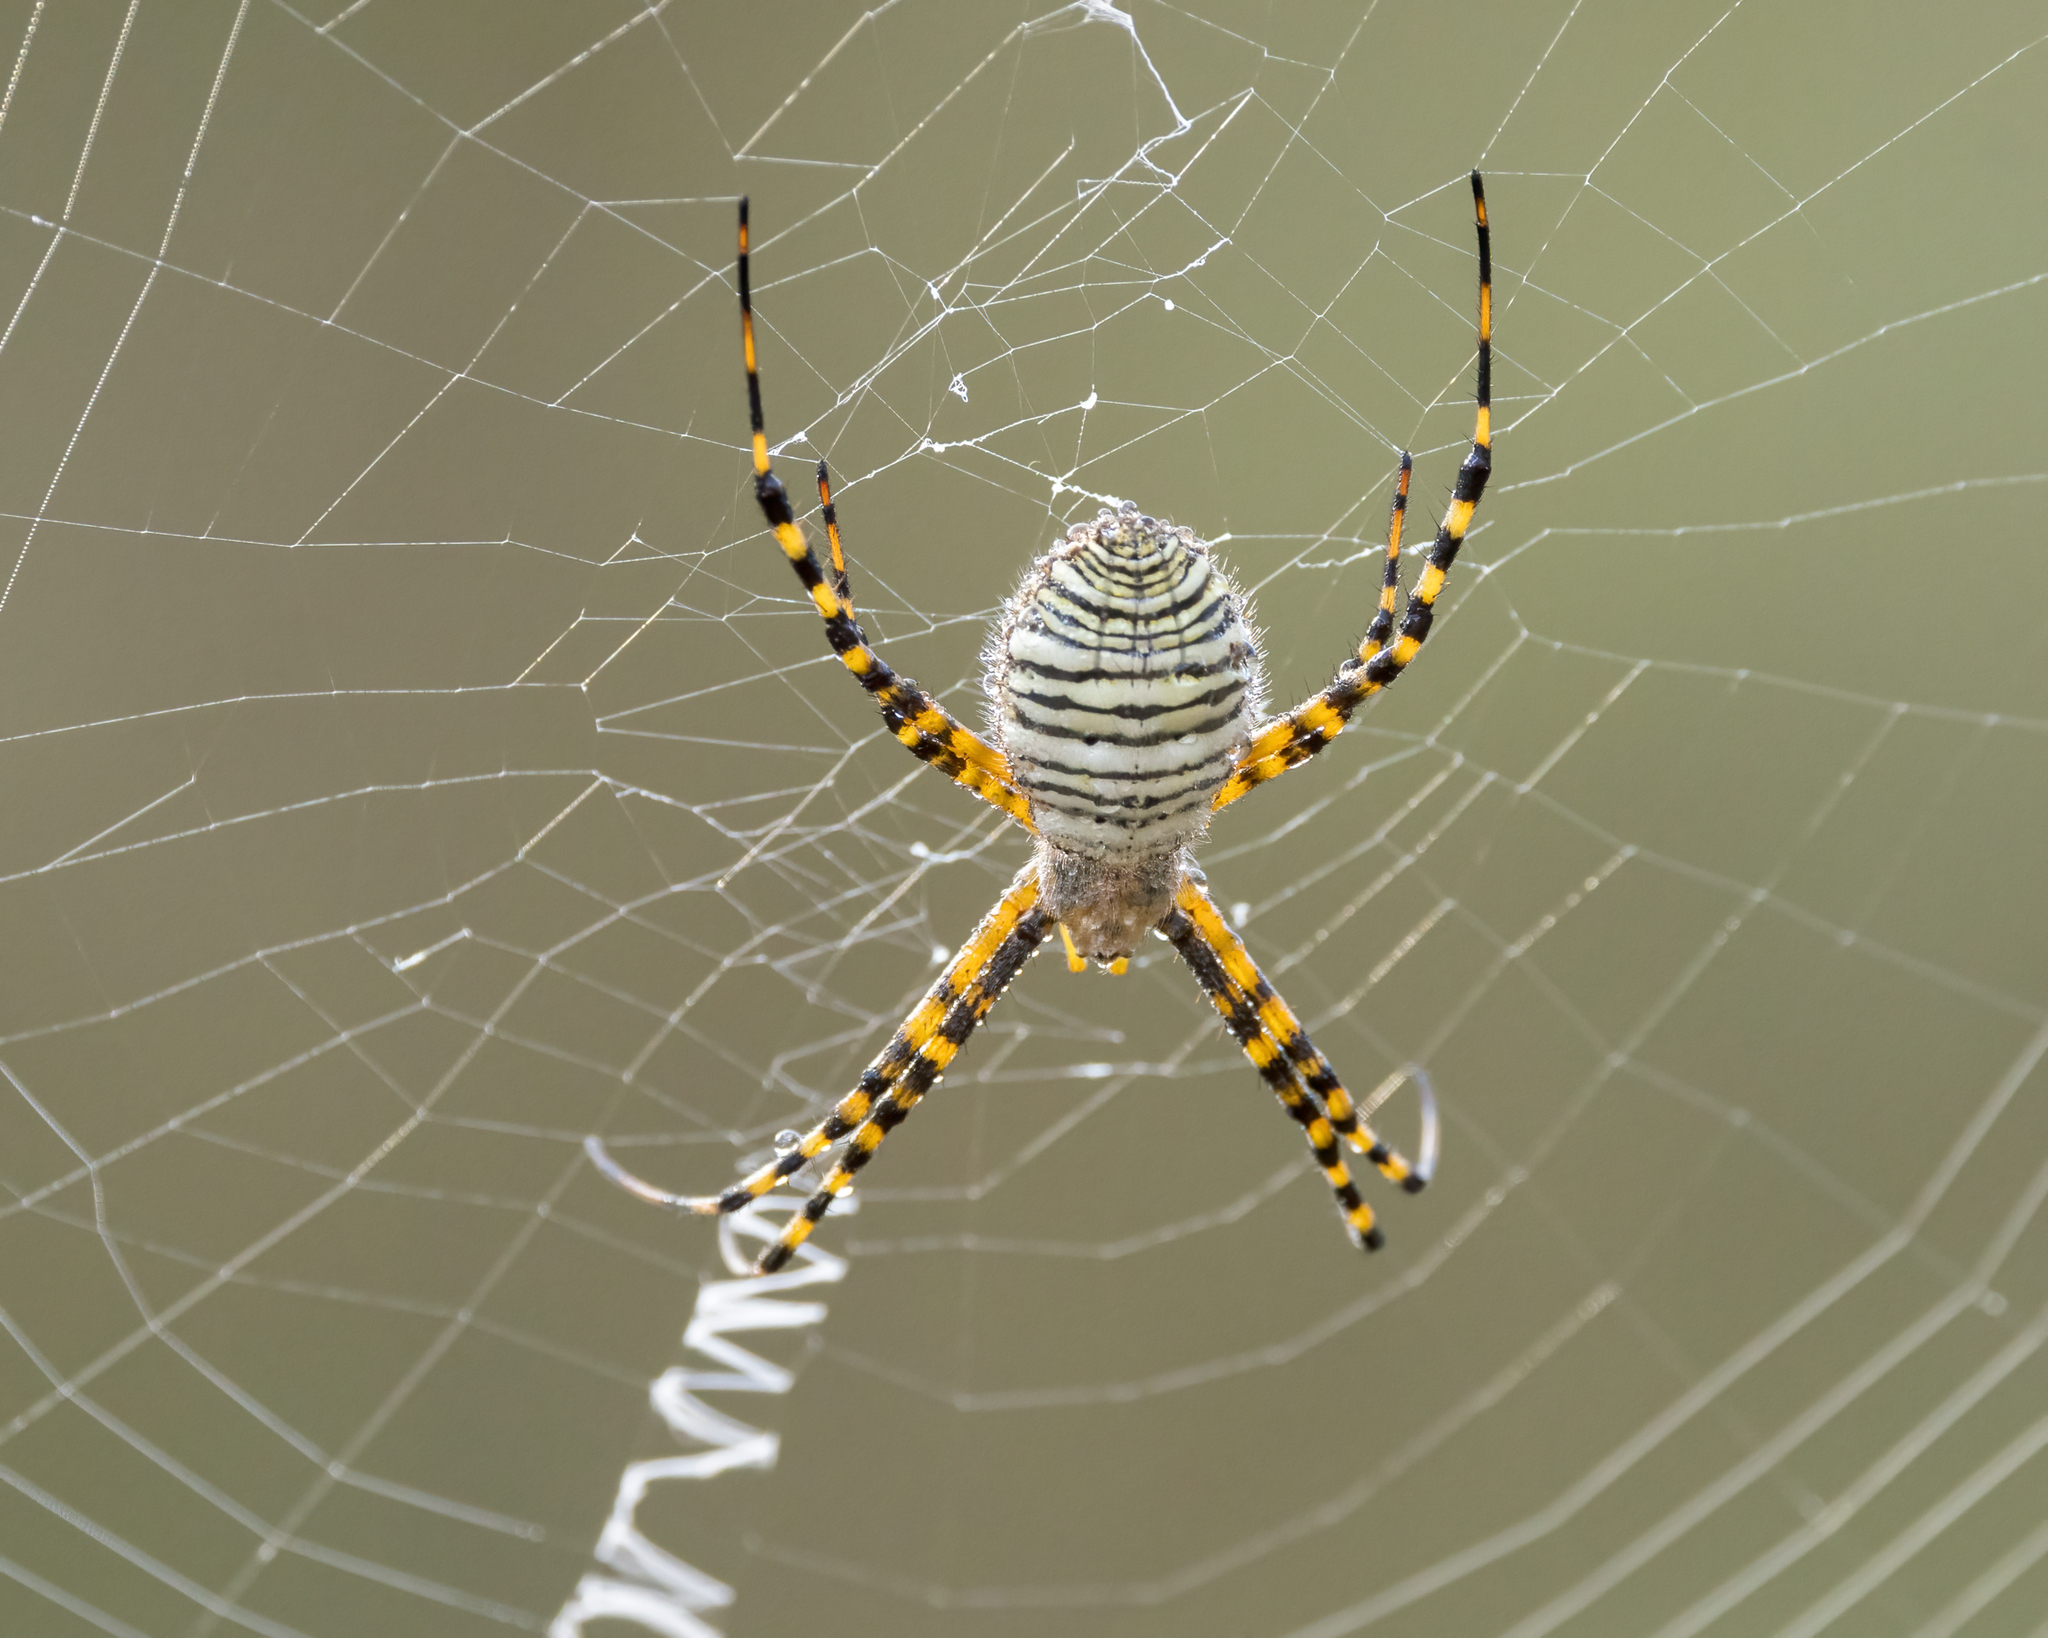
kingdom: Animalia
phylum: Arthropoda
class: Arachnida
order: Araneae
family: Araneidae
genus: Argiope
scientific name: Argiope trifasciata
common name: Banded garden spider
